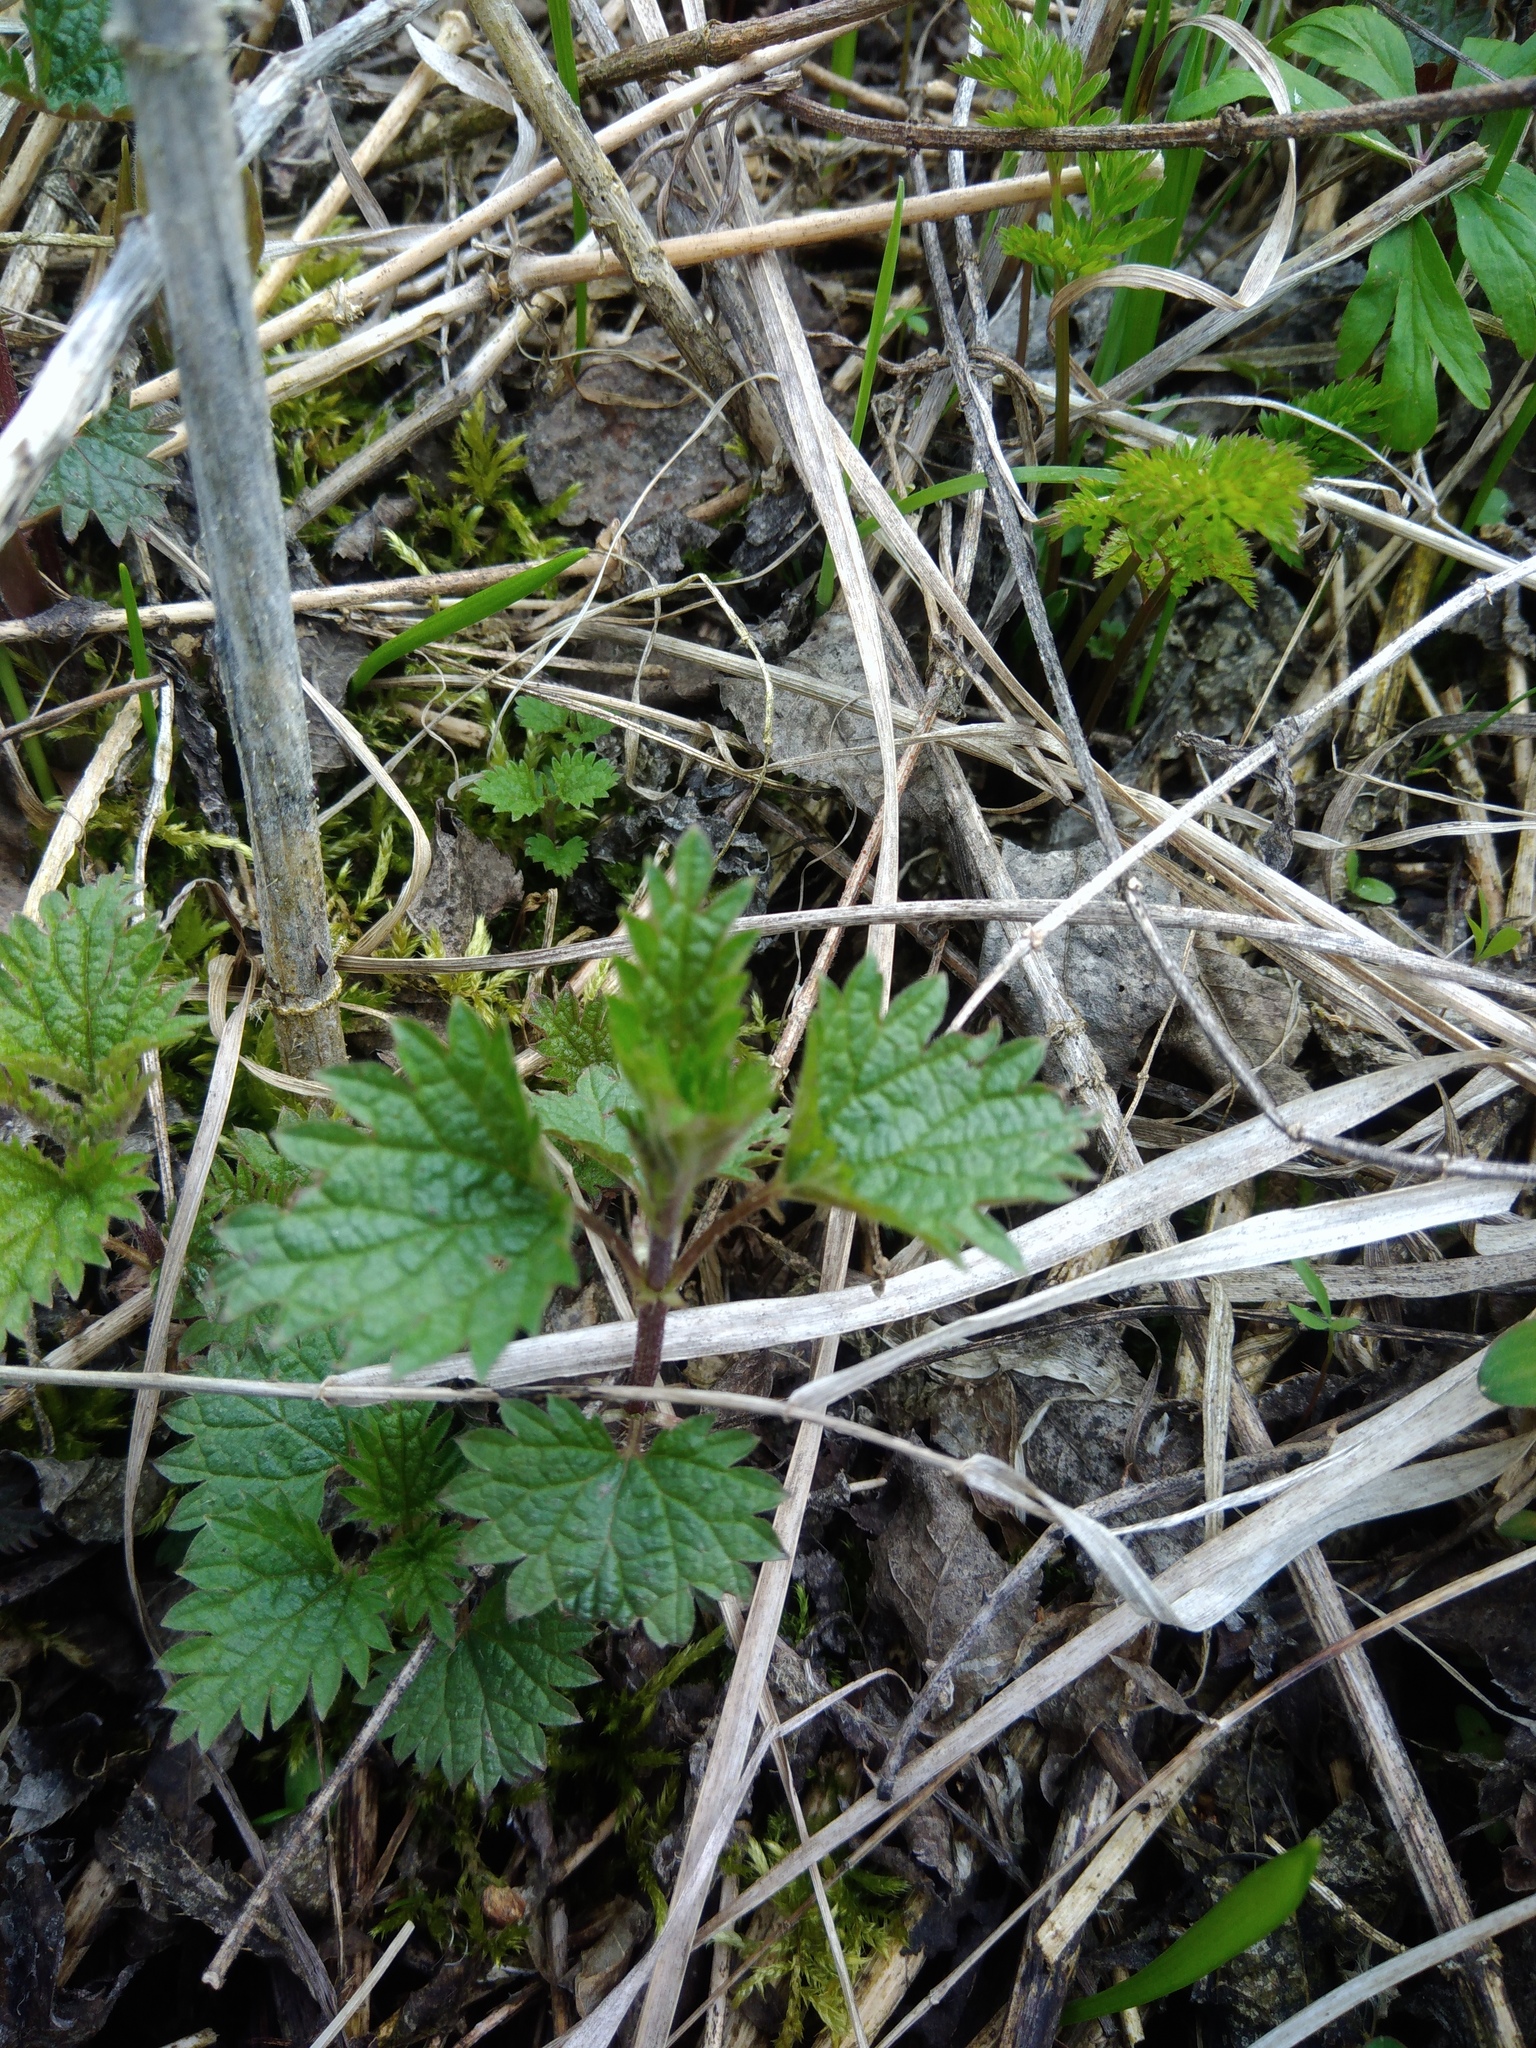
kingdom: Plantae
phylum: Tracheophyta
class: Magnoliopsida
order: Rosales
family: Urticaceae
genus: Urtica
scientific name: Urtica dioica
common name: Common nettle
